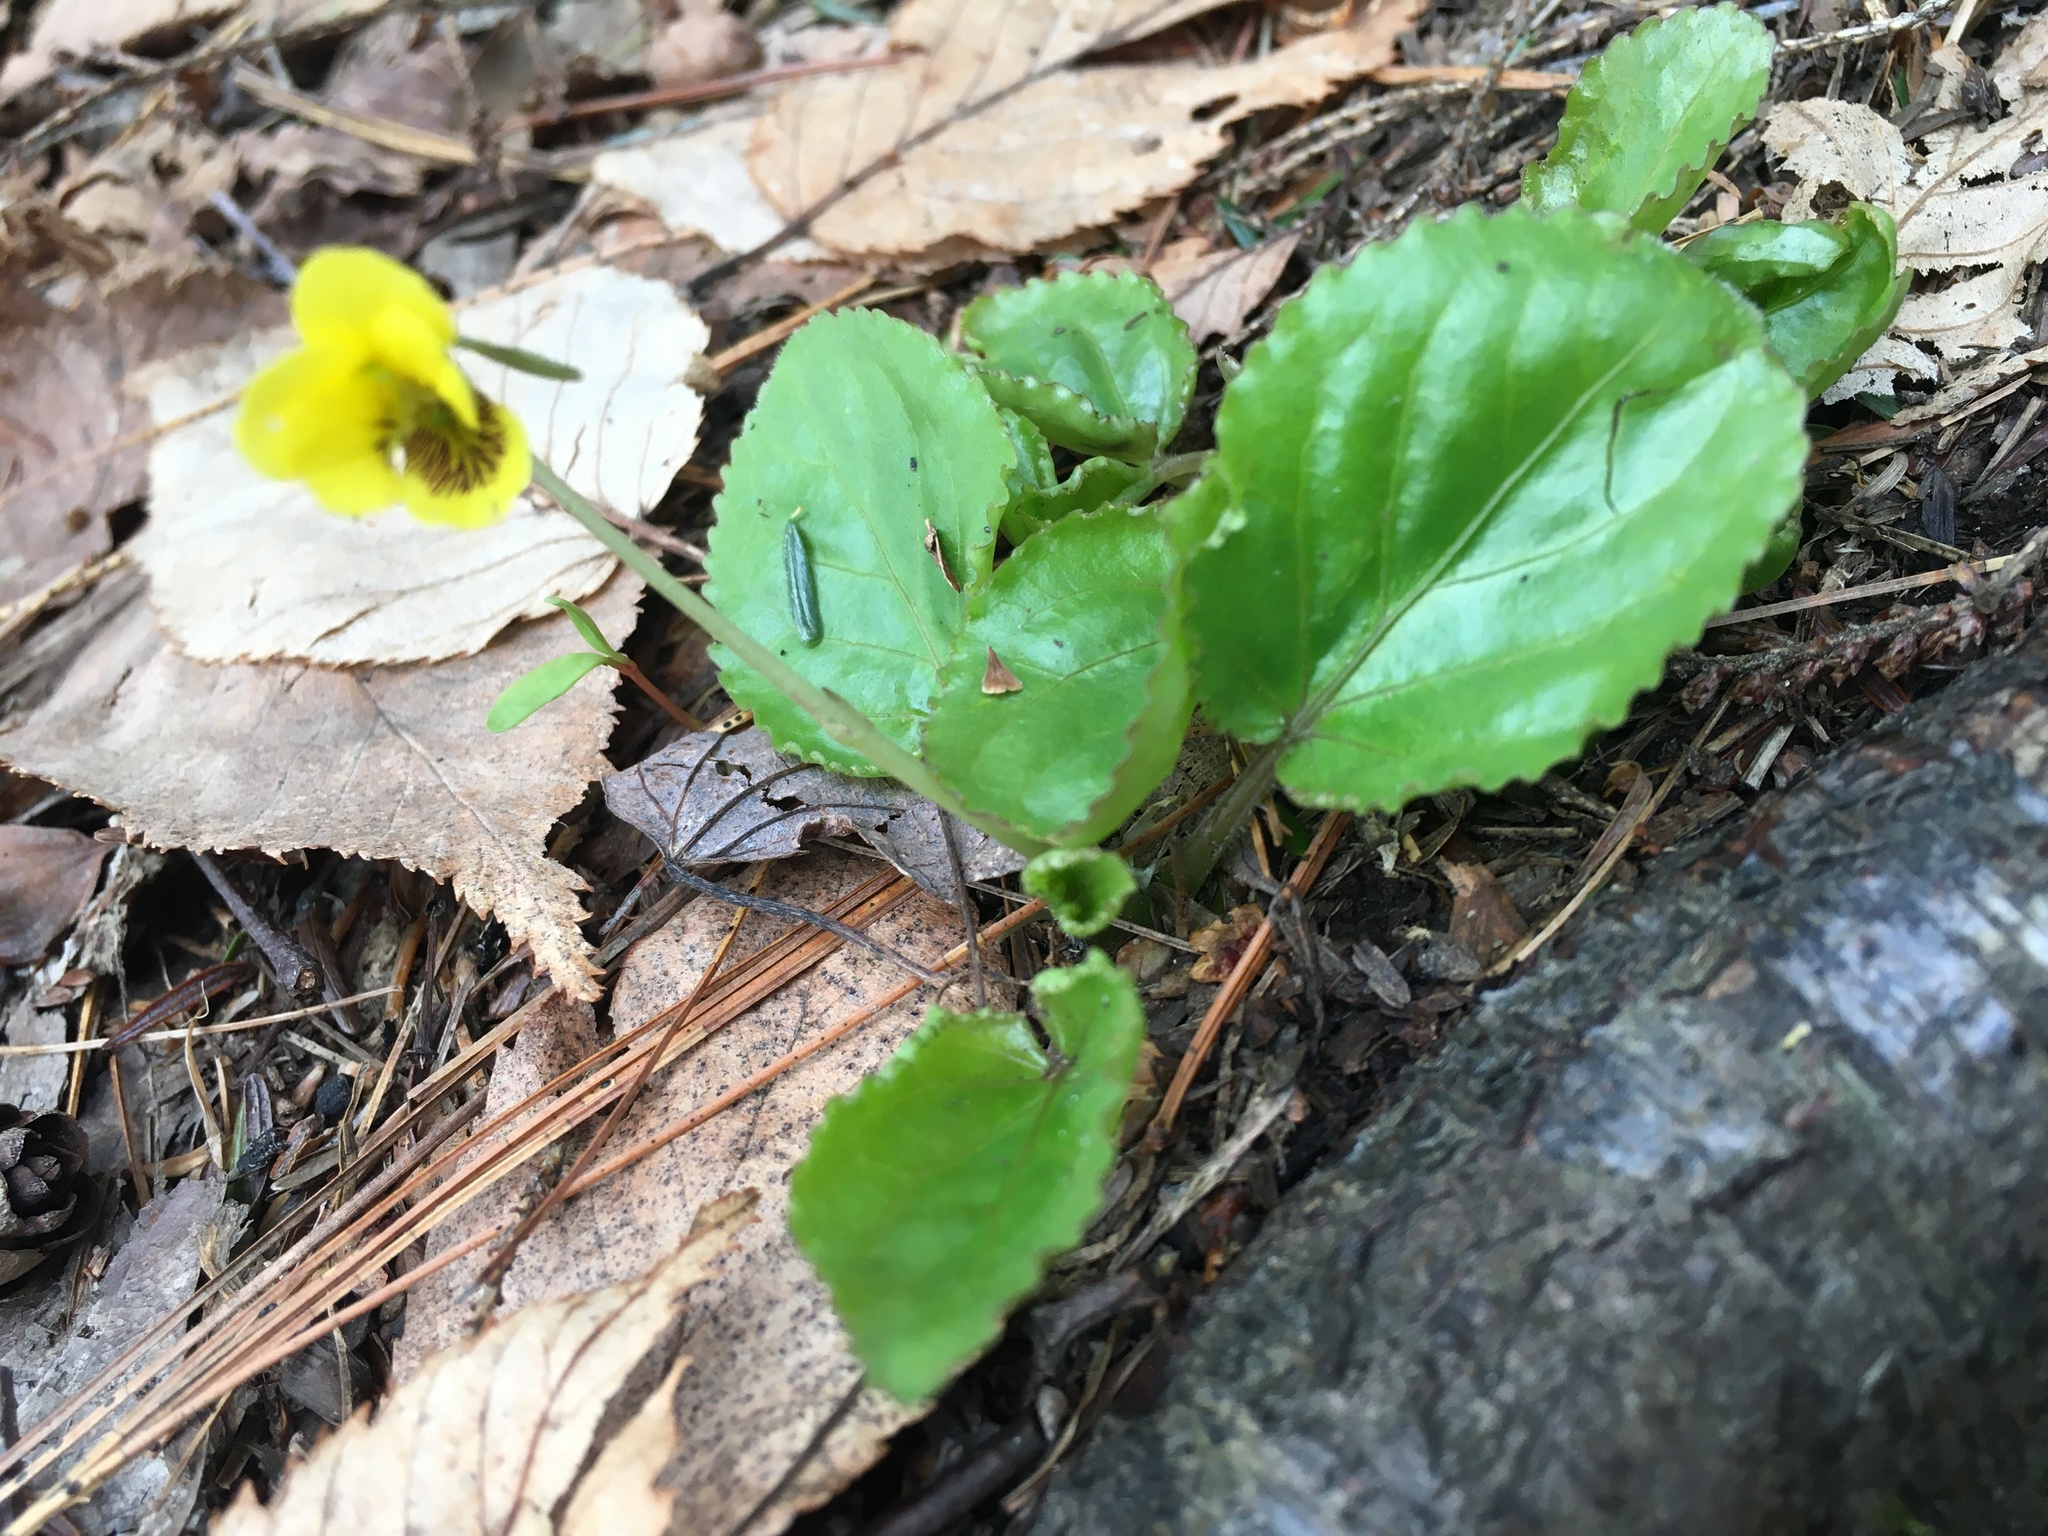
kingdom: Plantae
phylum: Tracheophyta
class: Magnoliopsida
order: Malpighiales
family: Violaceae
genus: Viola
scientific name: Viola rotundifolia
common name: Early yellow violet
